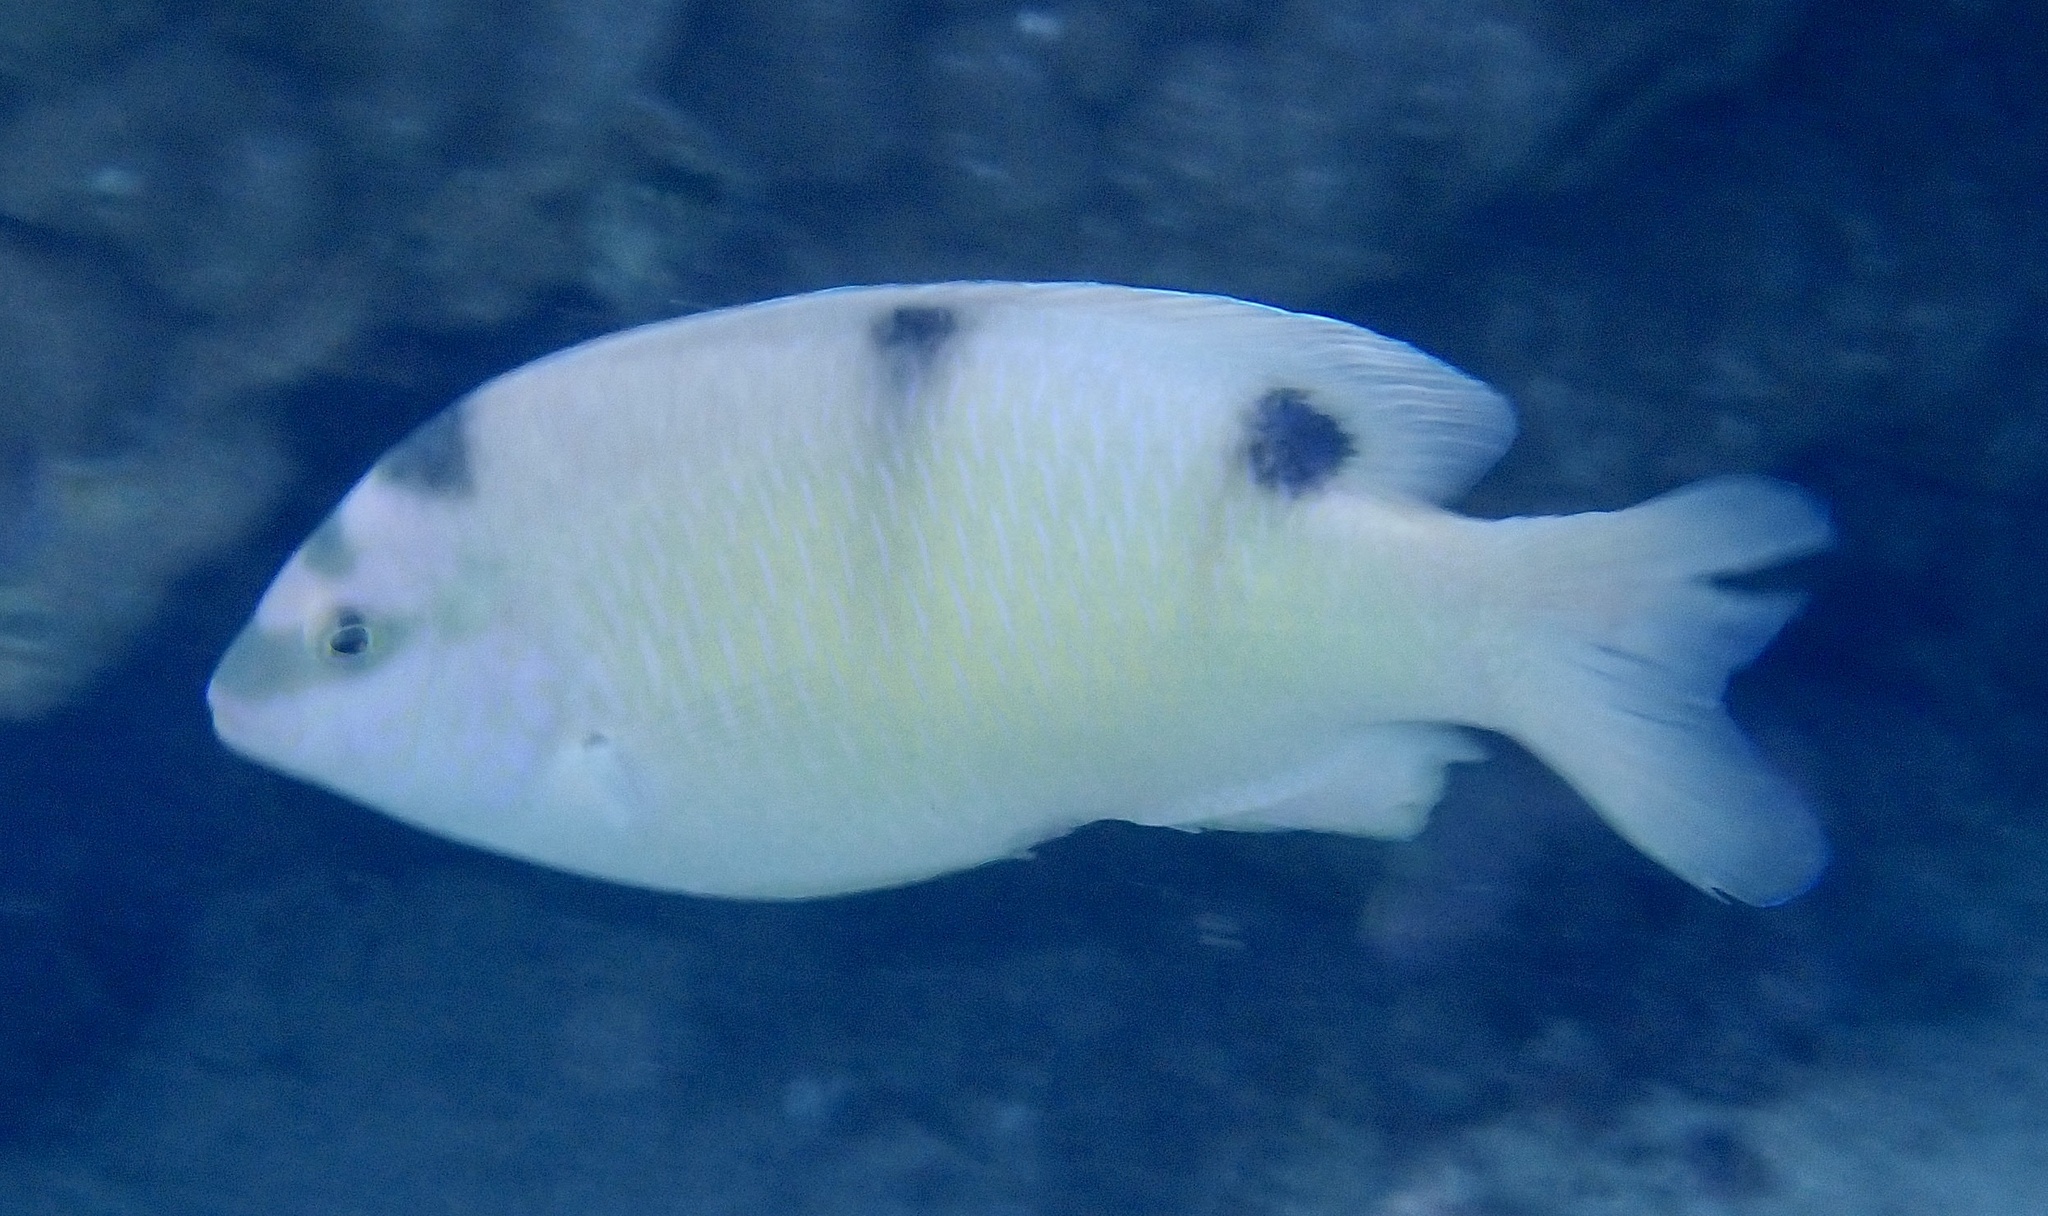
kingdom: Animalia
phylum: Chordata
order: Perciformes
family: Pomacentridae
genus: Dischistodus
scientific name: Dischistodus perspicillatus
